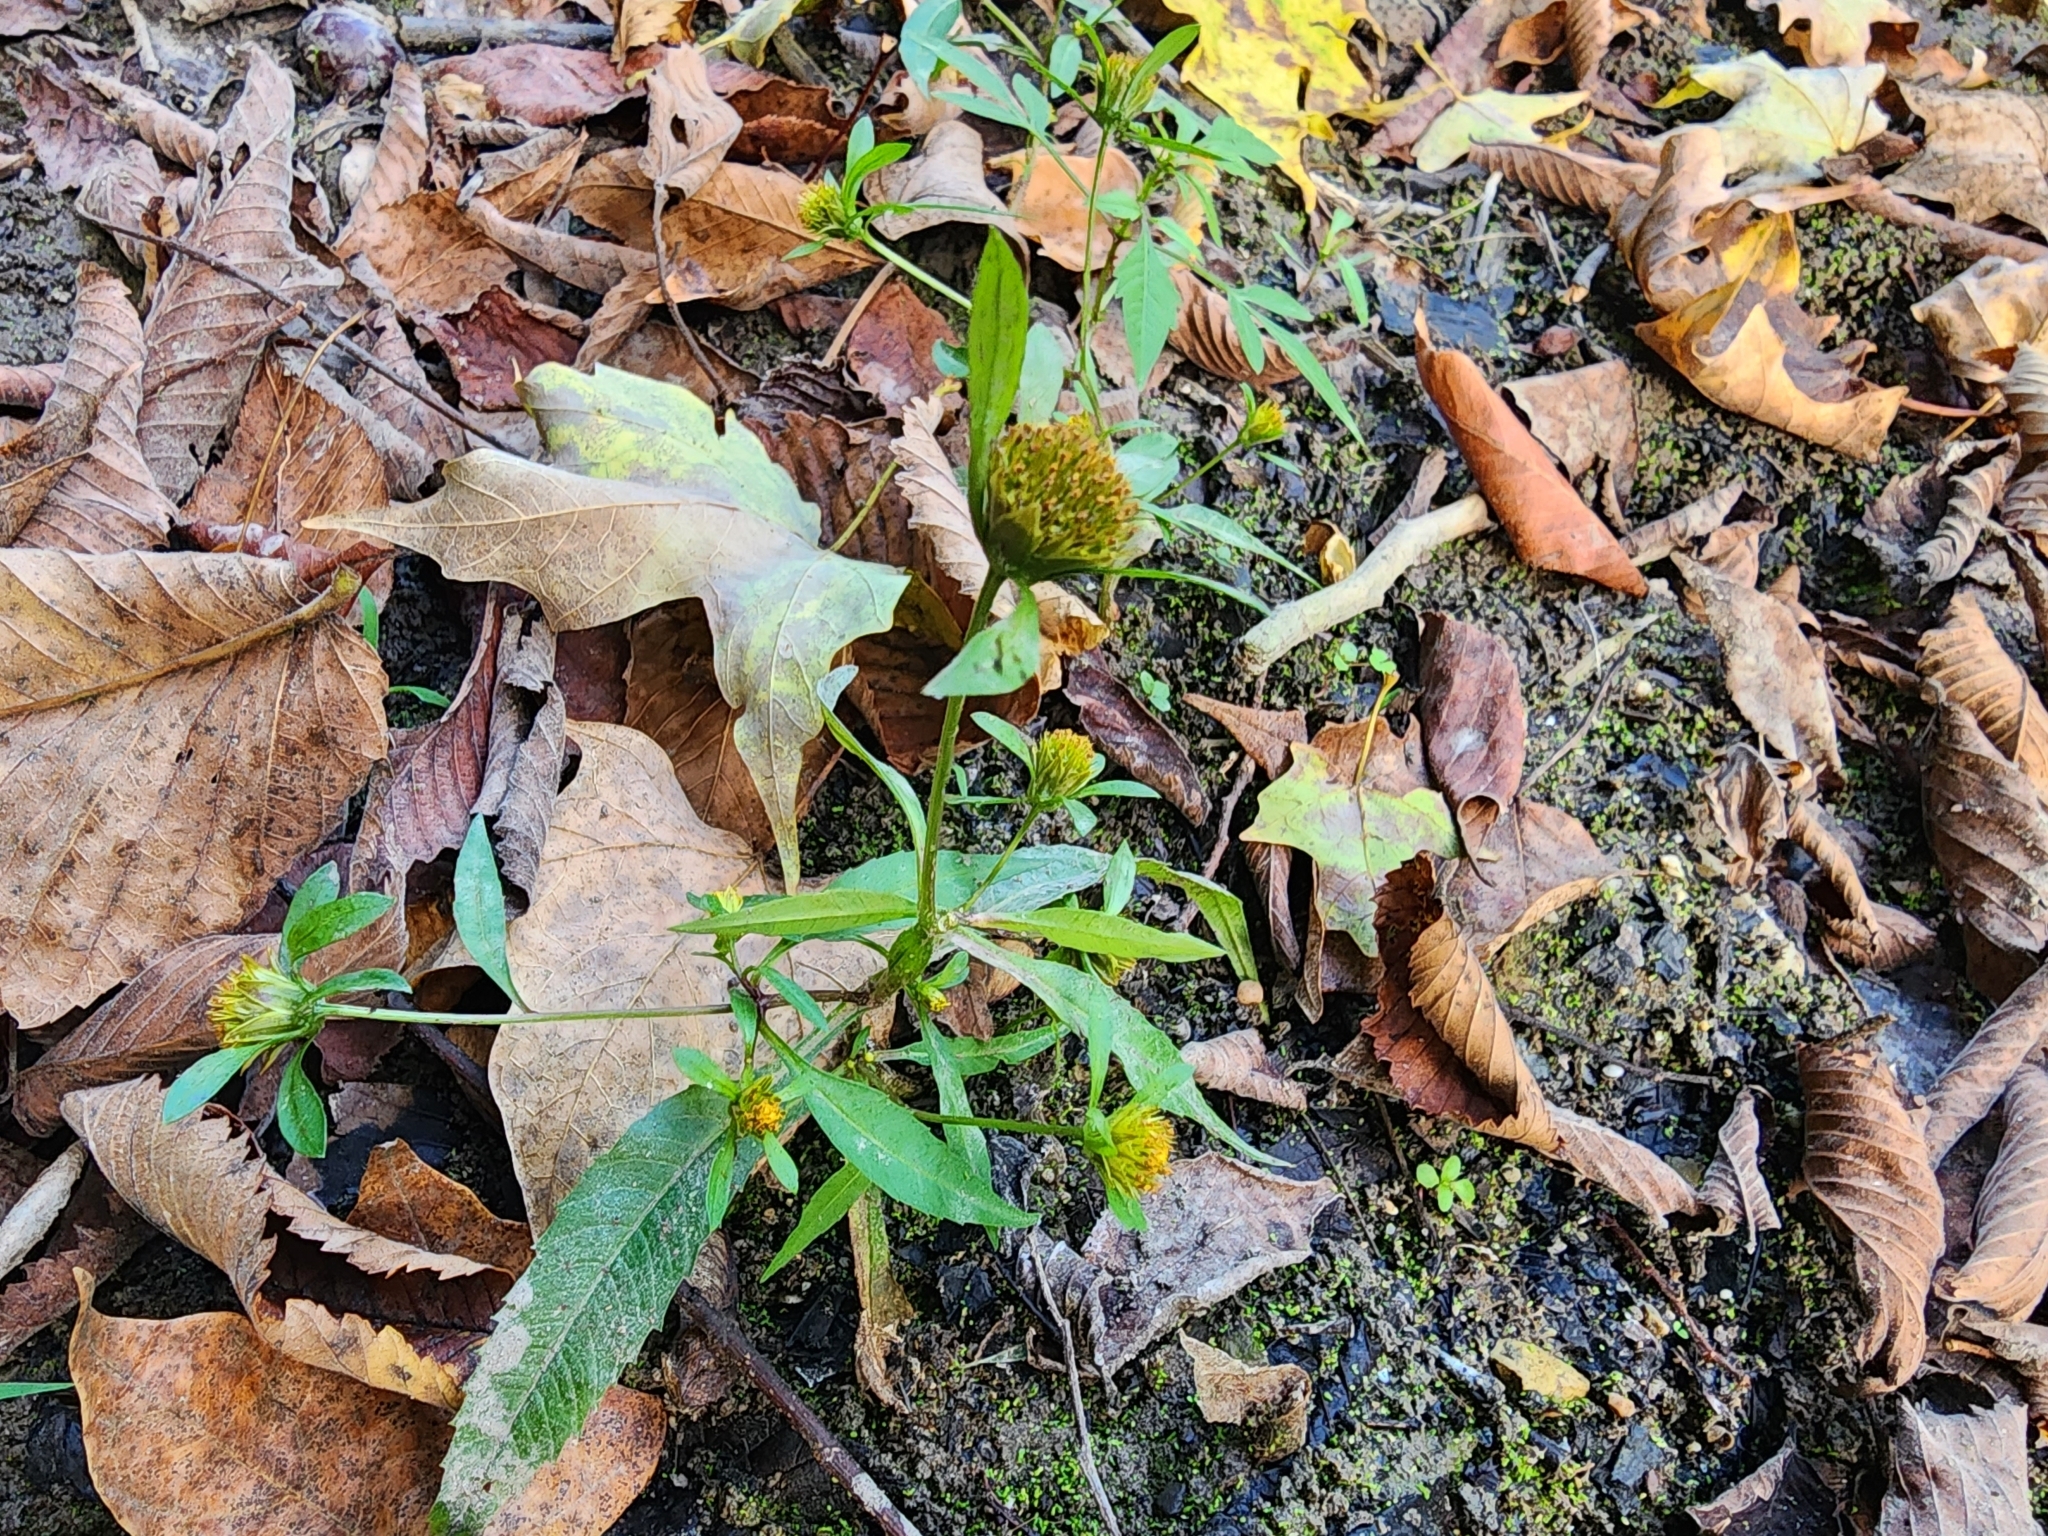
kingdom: Plantae
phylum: Tracheophyta
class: Magnoliopsida
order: Asterales
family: Asteraceae
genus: Bidens
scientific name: Bidens connata
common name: London bur-marigold
